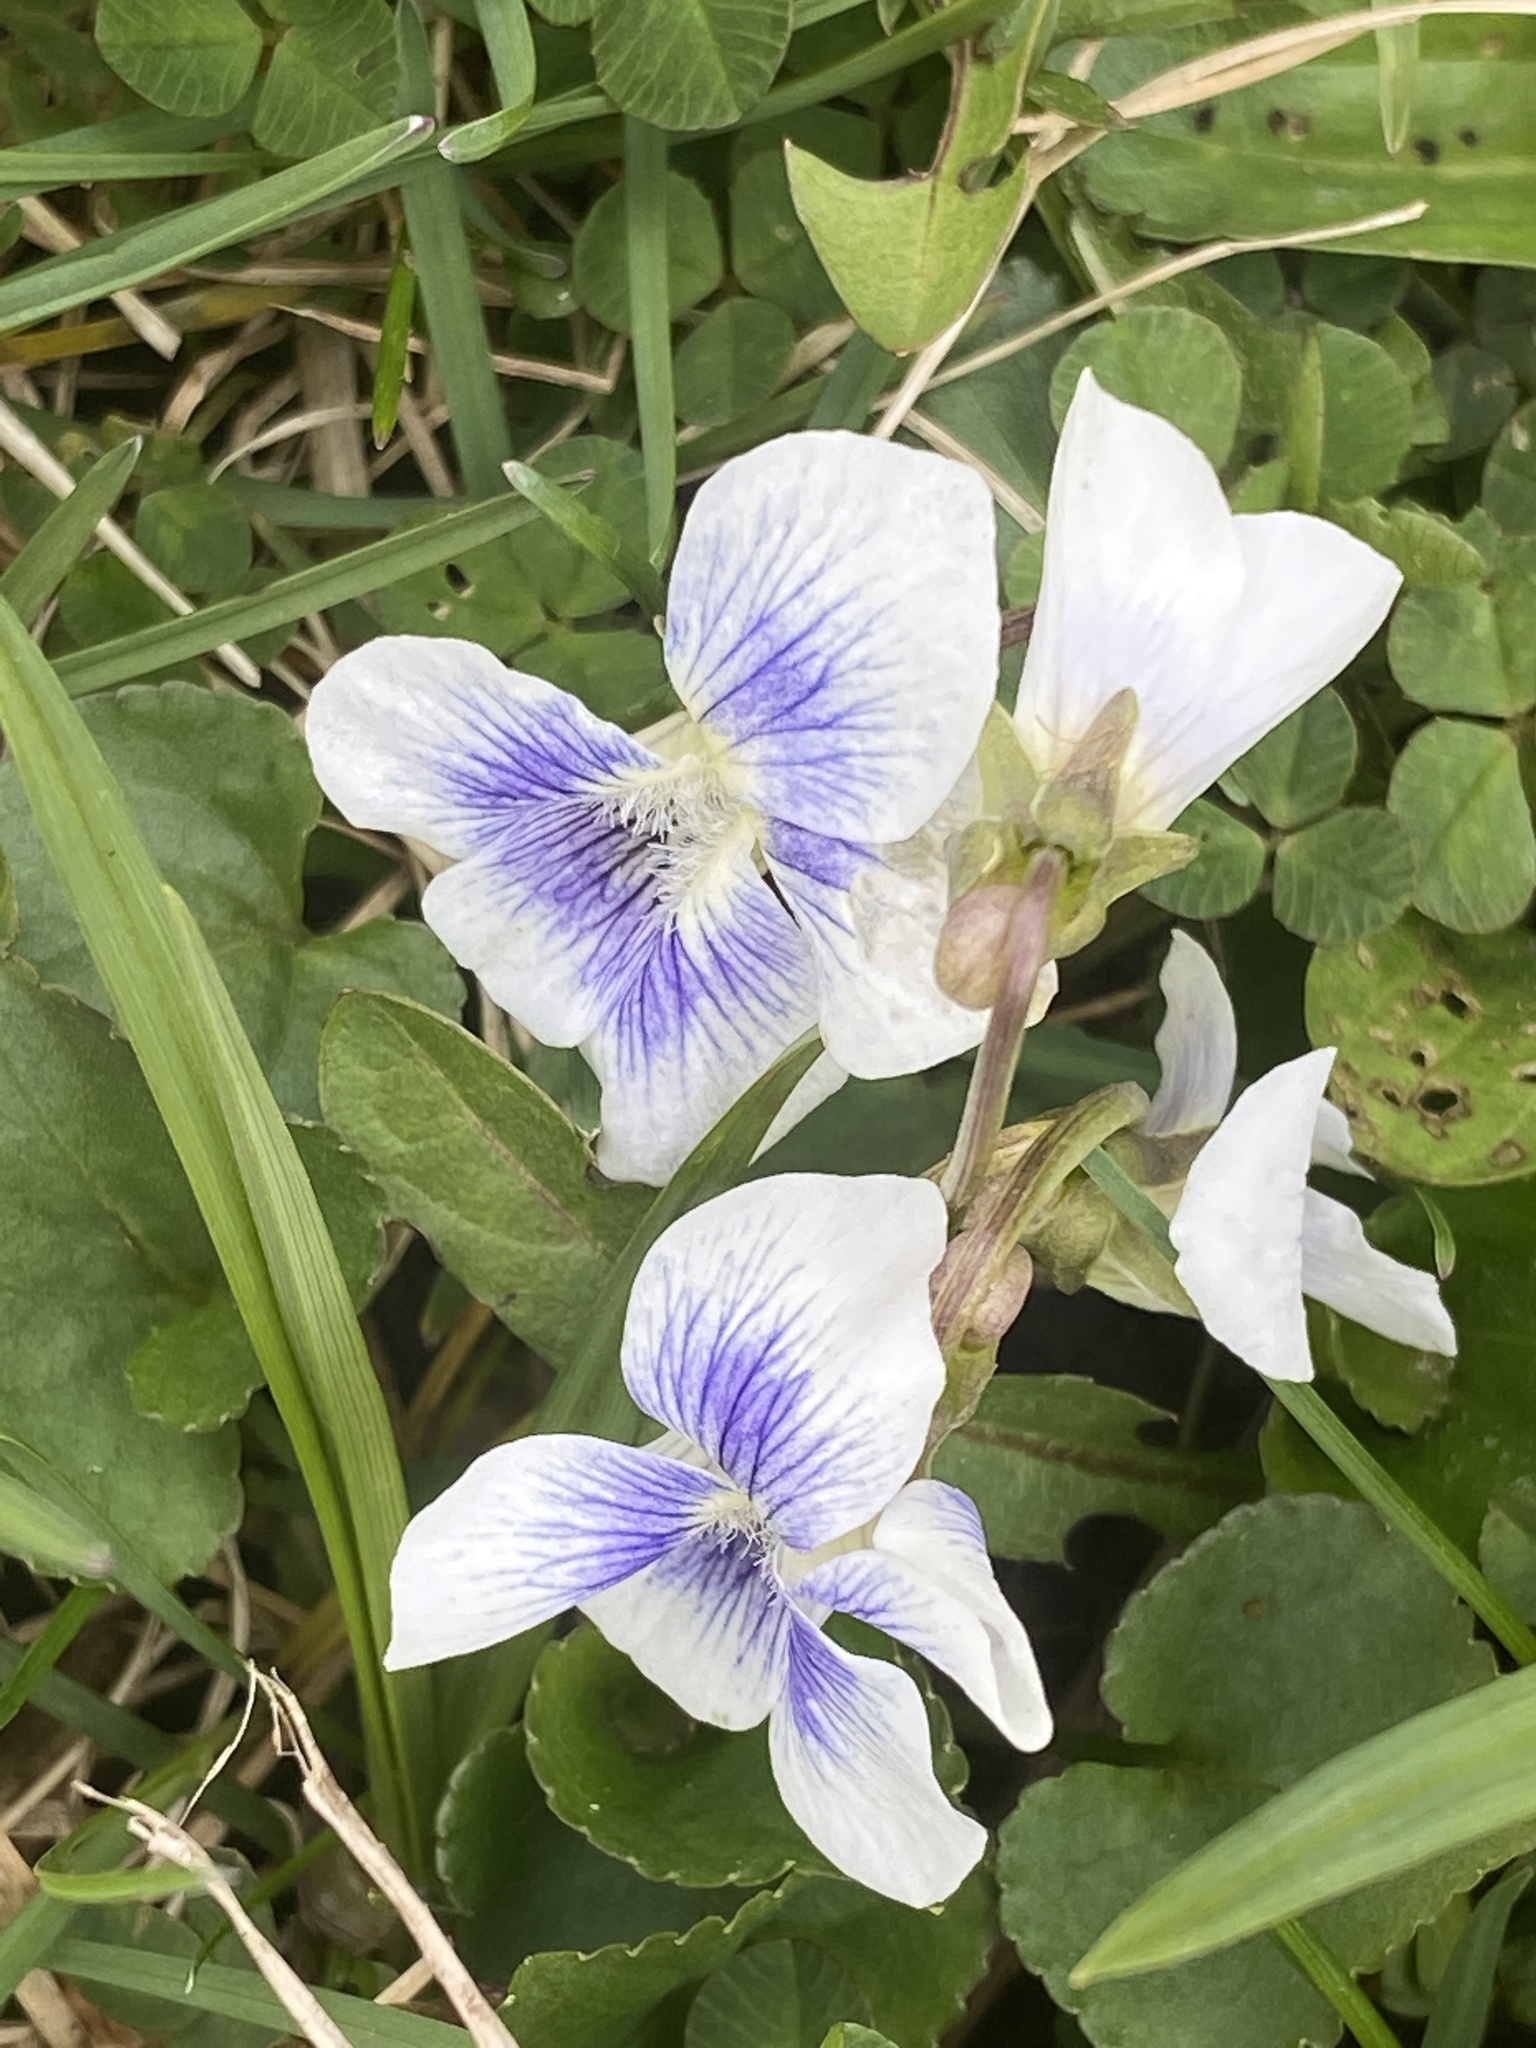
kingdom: Plantae
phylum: Tracheophyta
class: Magnoliopsida
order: Malpighiales
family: Violaceae
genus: Viola
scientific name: Viola sororia
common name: Dooryard violet
